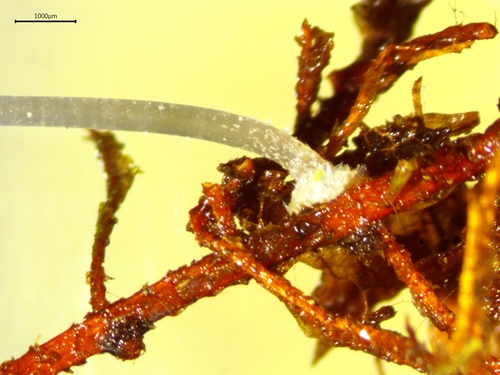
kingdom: Fungi
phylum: Basidiomycota
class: Agaricomycetes
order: Agaricales
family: Mycenaceae
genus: Mycena
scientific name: Mycena mucor
